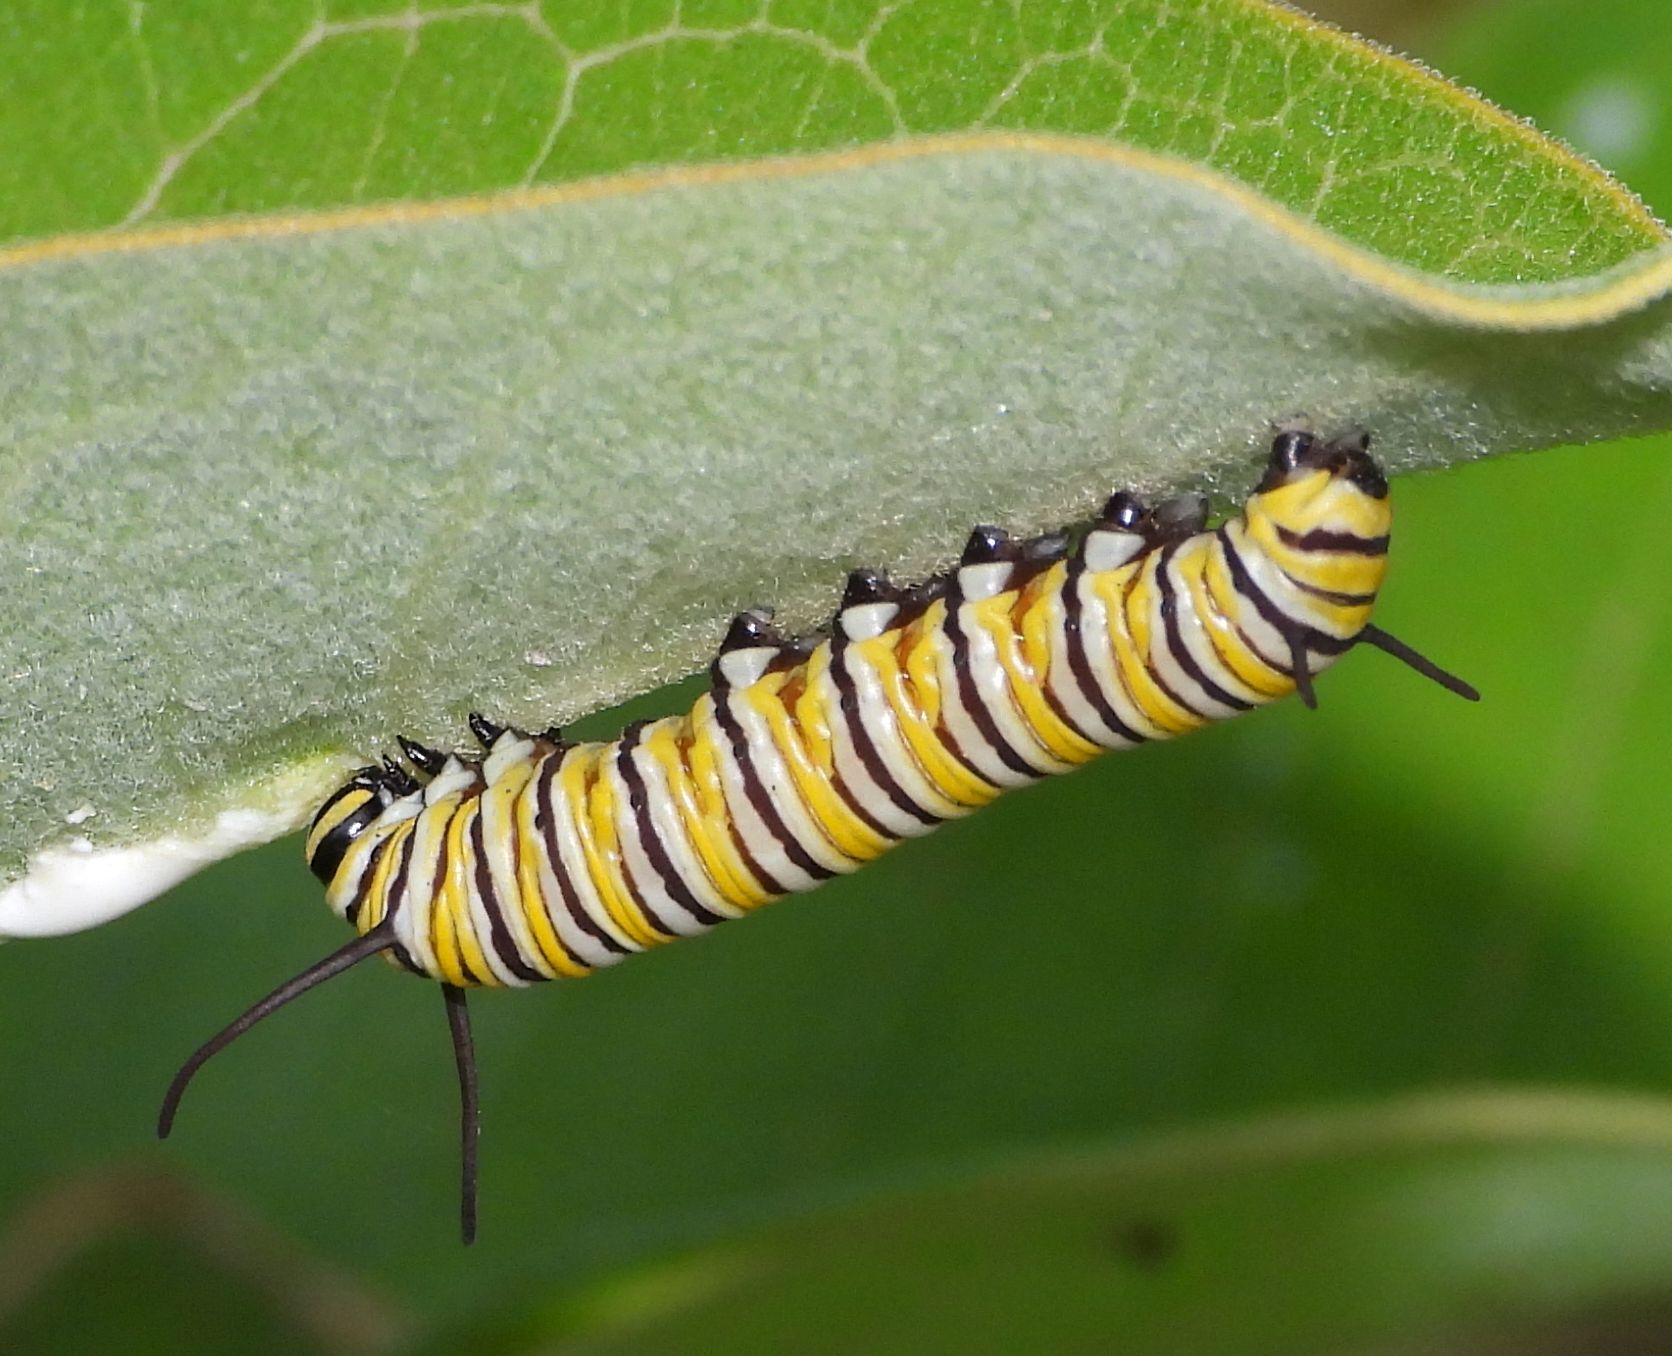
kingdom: Animalia
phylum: Arthropoda
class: Insecta
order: Lepidoptera
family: Nymphalidae
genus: Danaus
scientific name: Danaus plexippus
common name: Monarch
